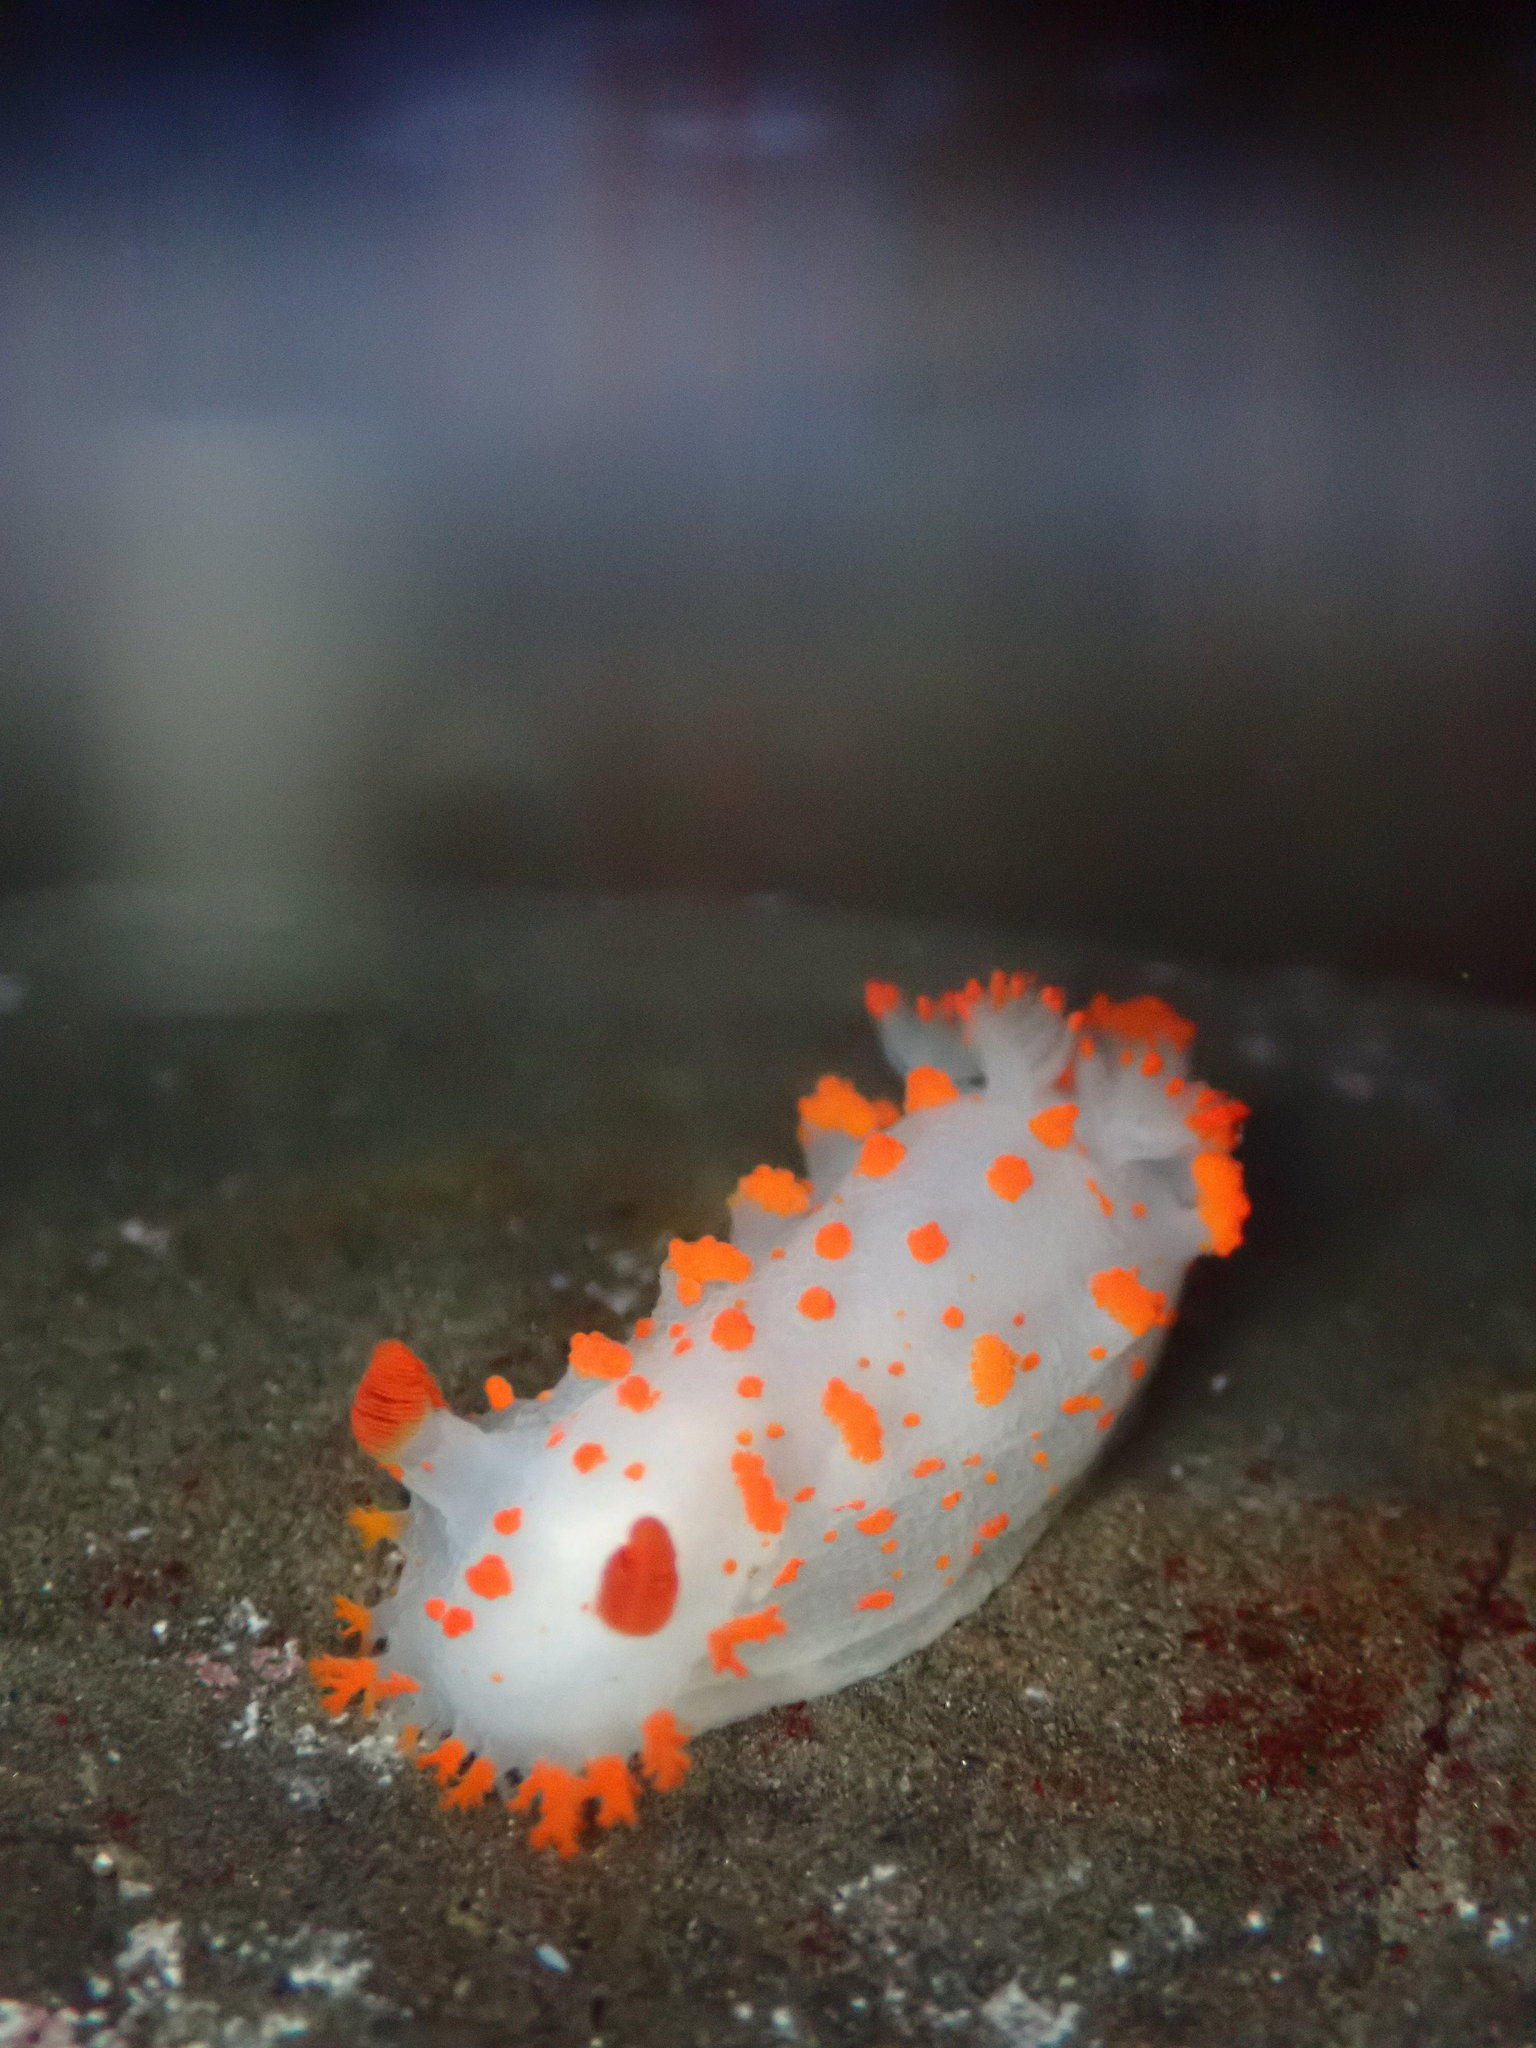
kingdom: Animalia
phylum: Mollusca
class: Gastropoda
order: Nudibranchia
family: Polyceridae
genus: Triopha
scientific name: Triopha catalinae
